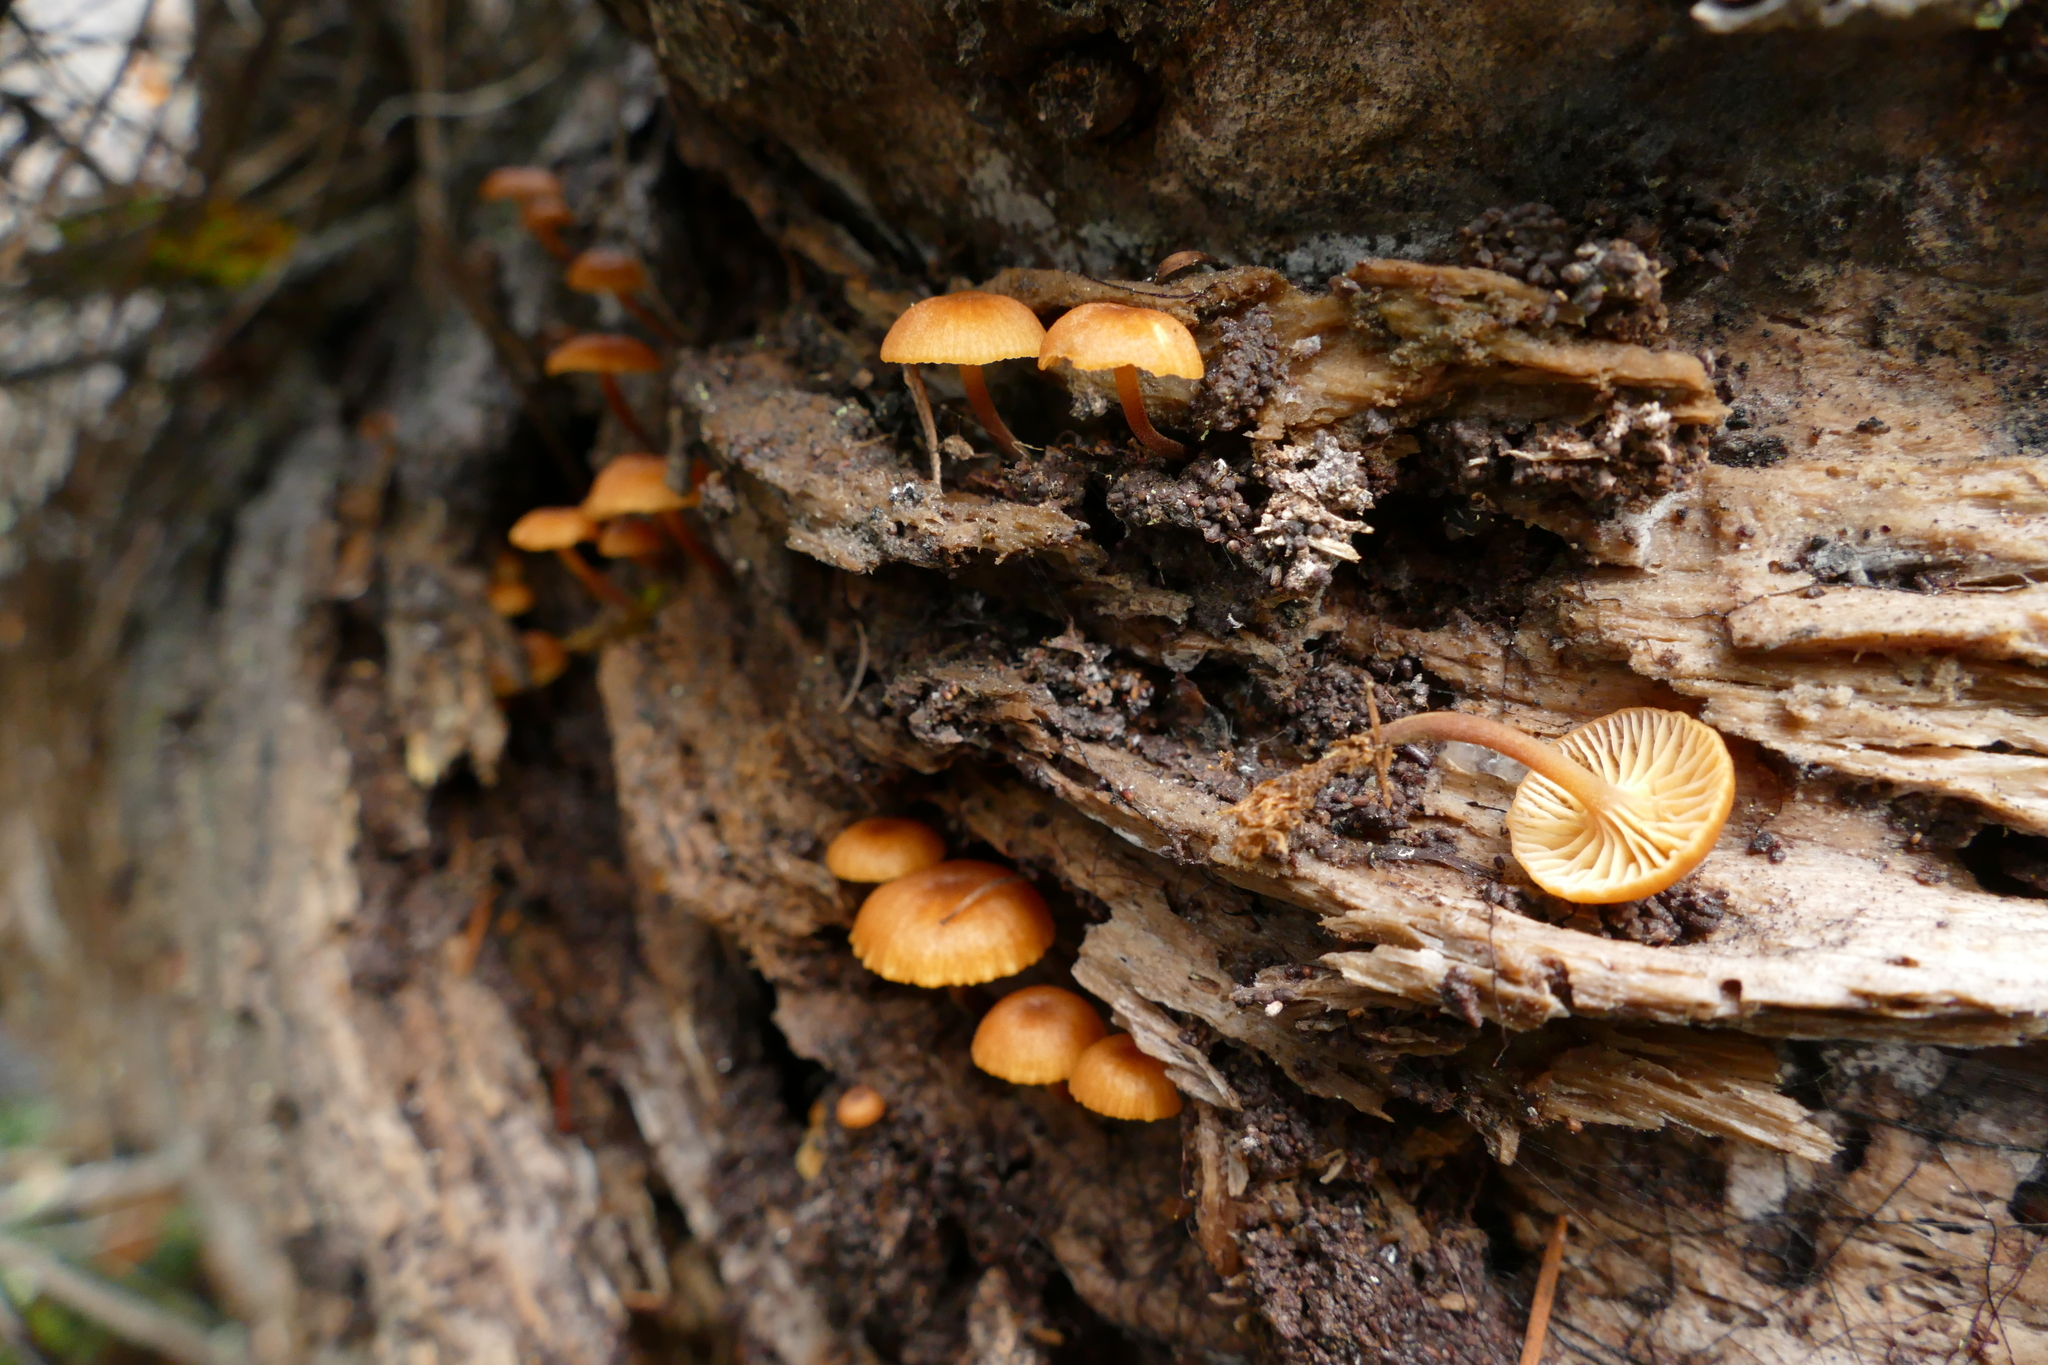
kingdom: Fungi
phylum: Basidiomycota
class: Agaricomycetes
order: Agaricales
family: Mycenaceae
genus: Xeromphalina
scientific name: Xeromphalina campanella
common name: Pinewood gingertail
